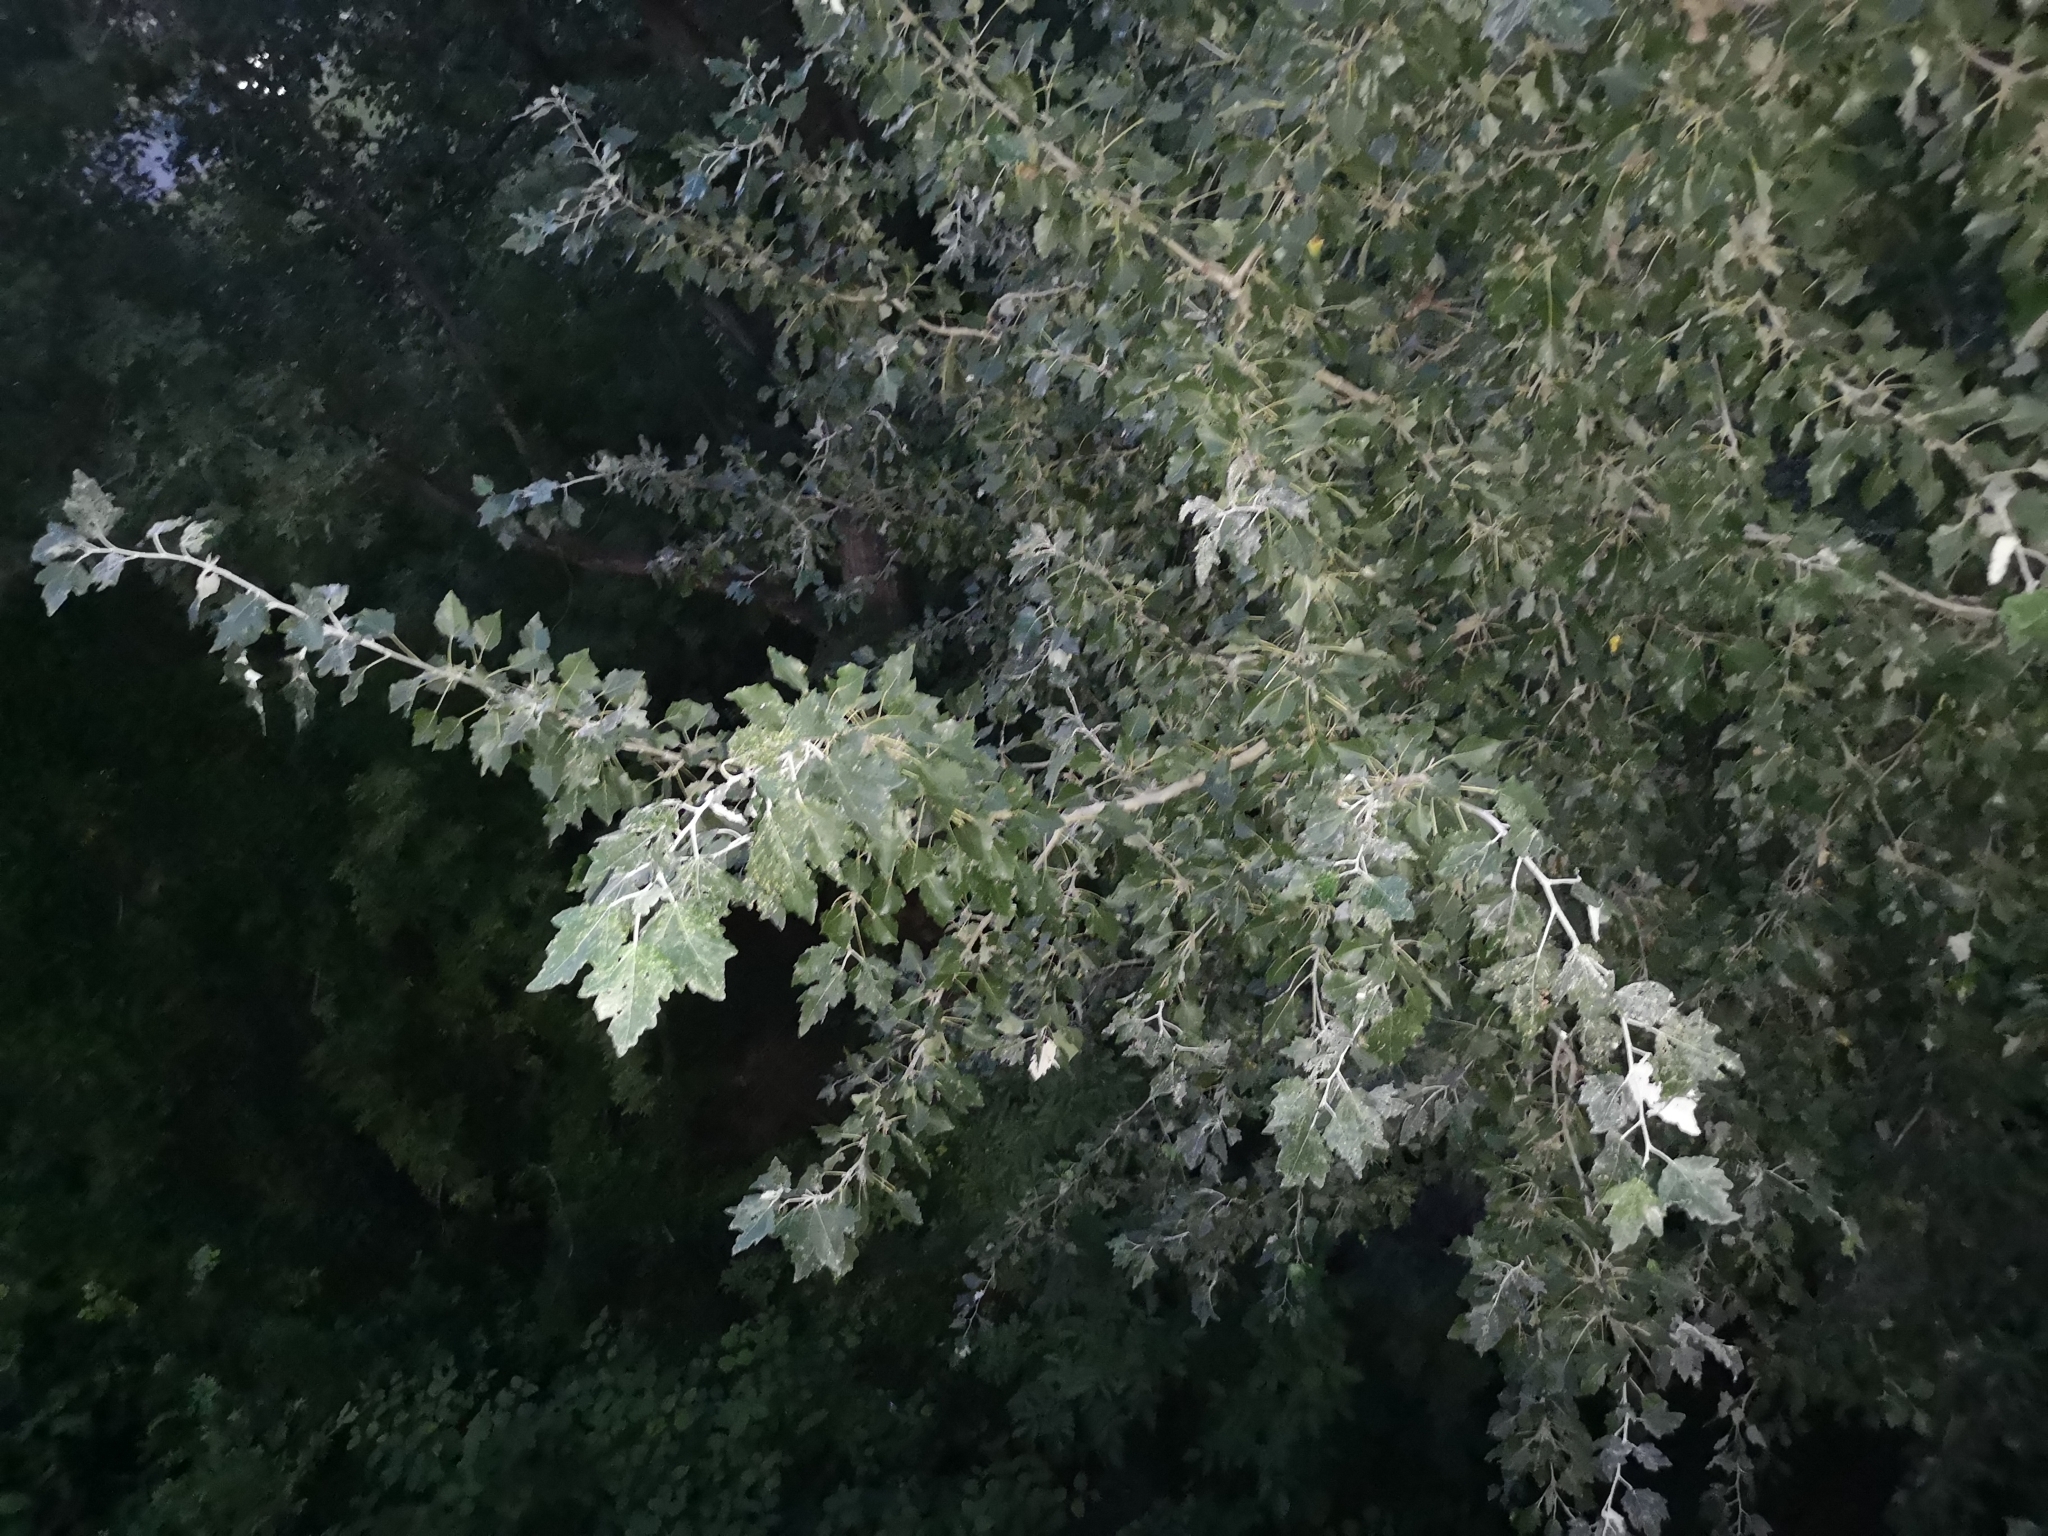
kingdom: Plantae
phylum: Tracheophyta
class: Magnoliopsida
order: Malpighiales
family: Salicaceae
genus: Populus
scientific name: Populus alba
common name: White poplar
